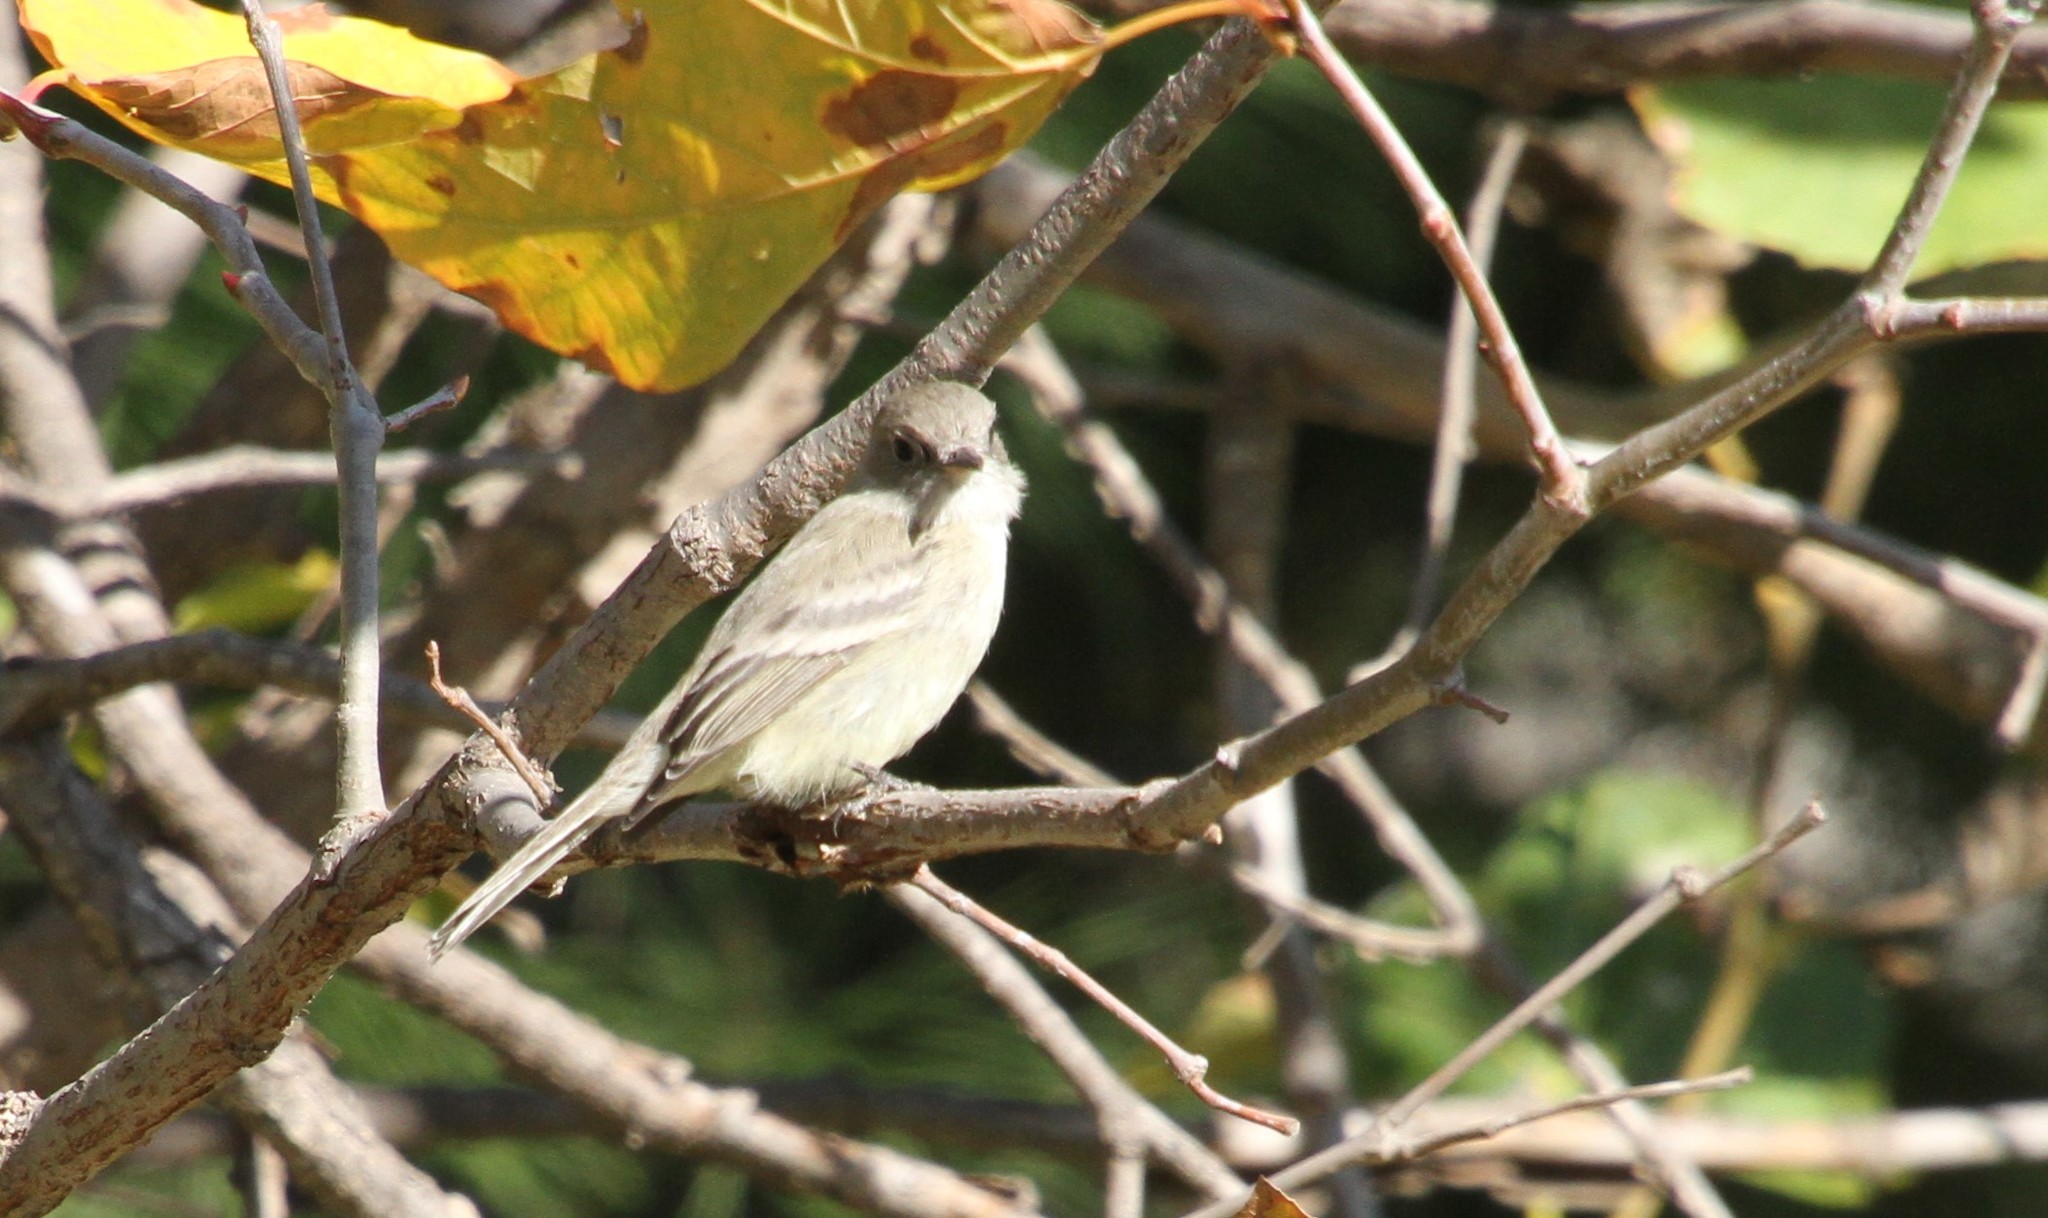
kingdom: Animalia
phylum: Chordata
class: Aves
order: Passeriformes
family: Tyrannidae
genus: Empidonax
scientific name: Empidonax wrightii
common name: Gray flycatcher
